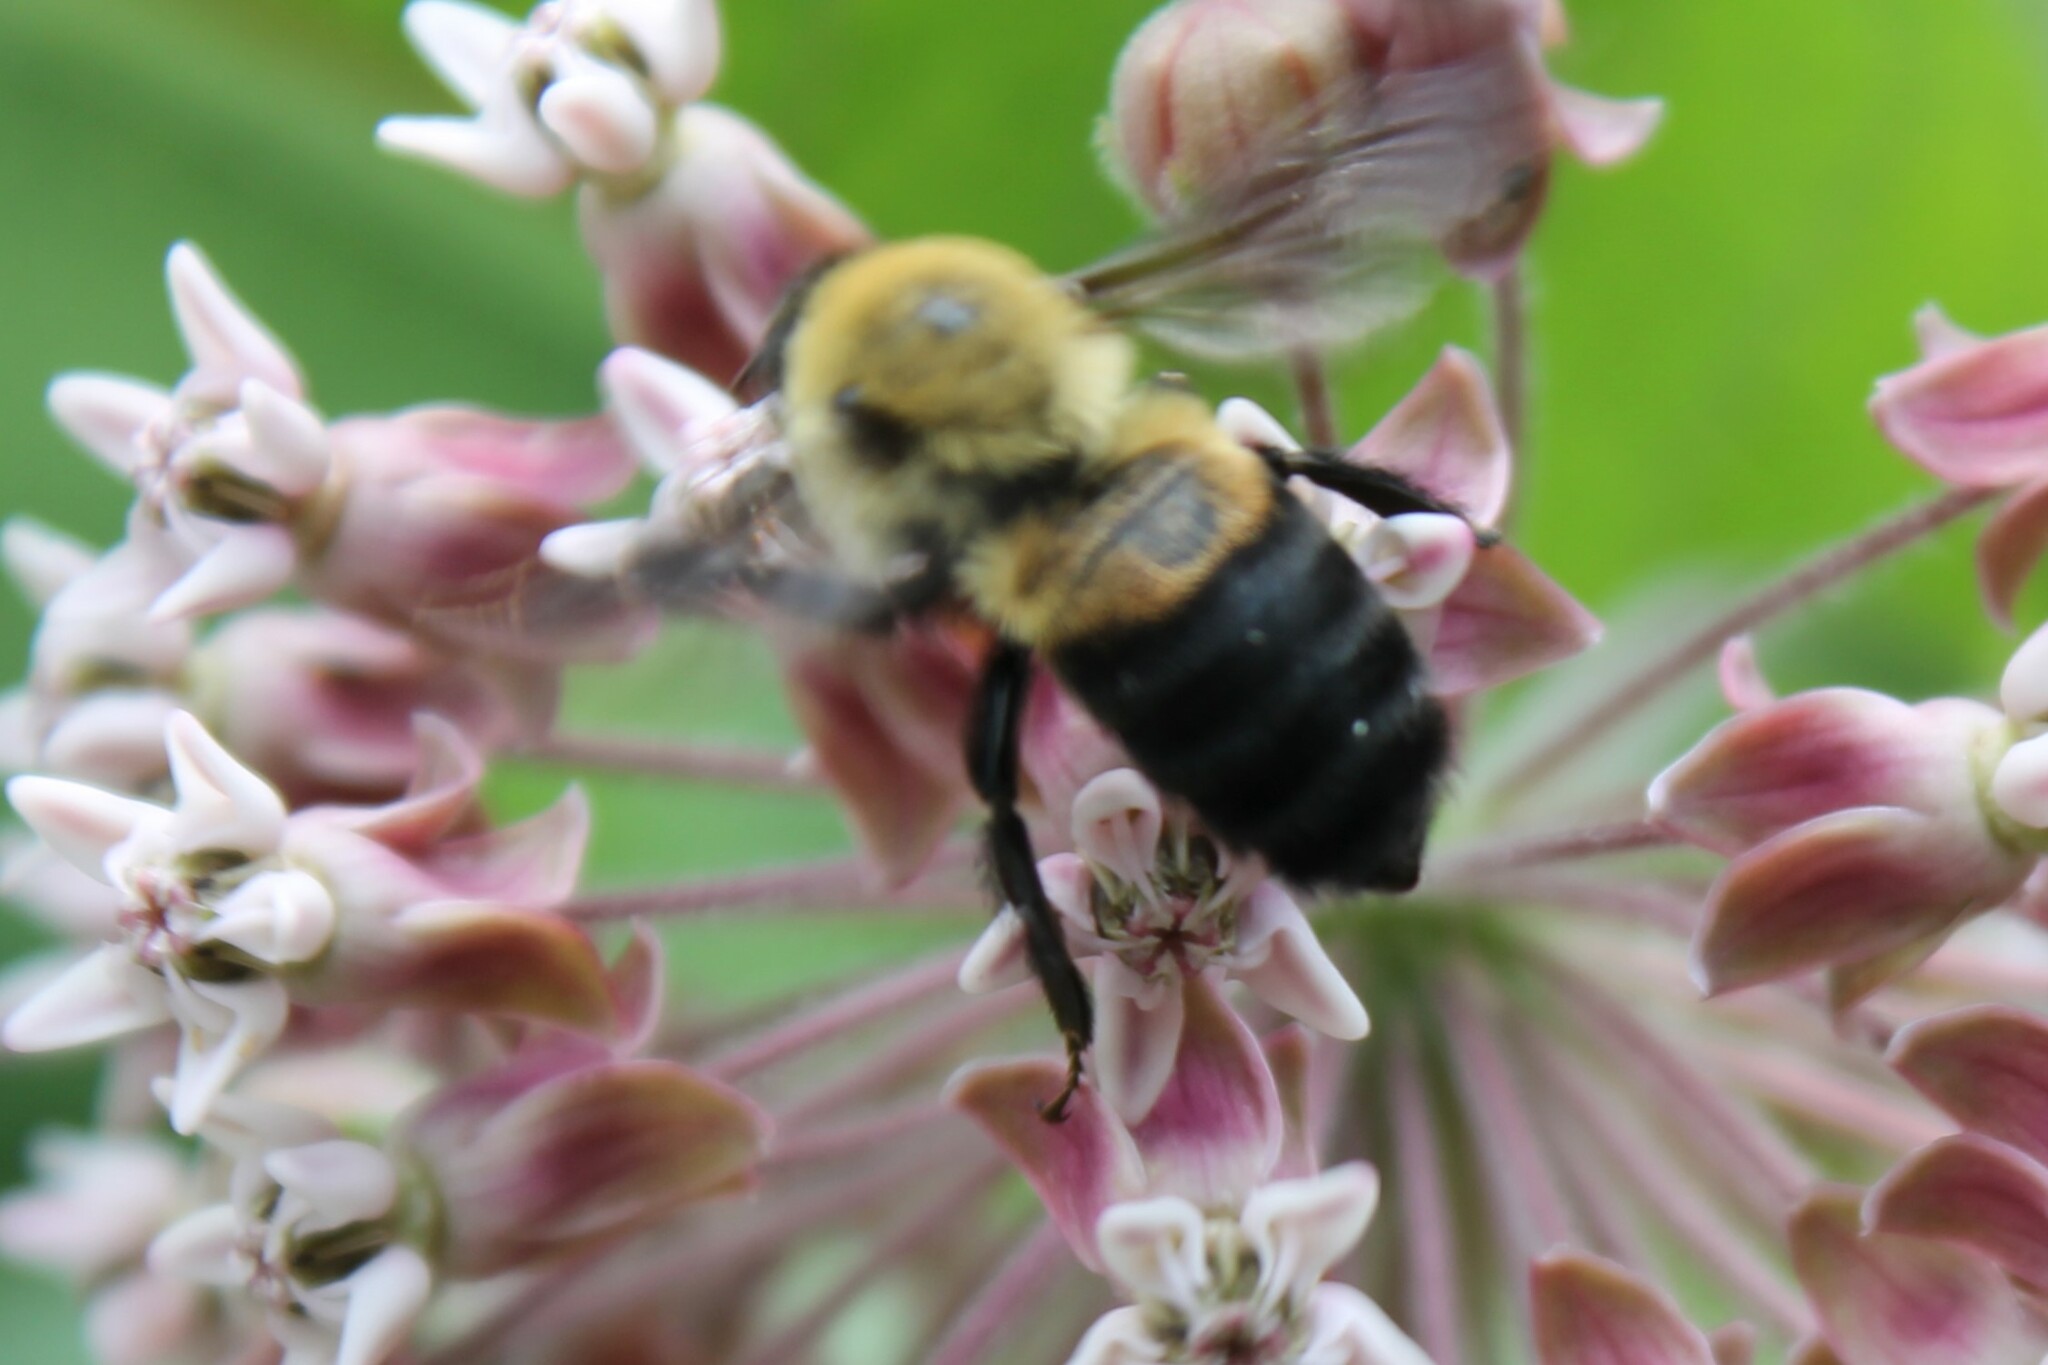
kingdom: Animalia
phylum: Arthropoda
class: Insecta
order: Hymenoptera
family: Apidae
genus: Bombus
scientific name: Bombus griseocollis
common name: Brown-belted bumble bee
